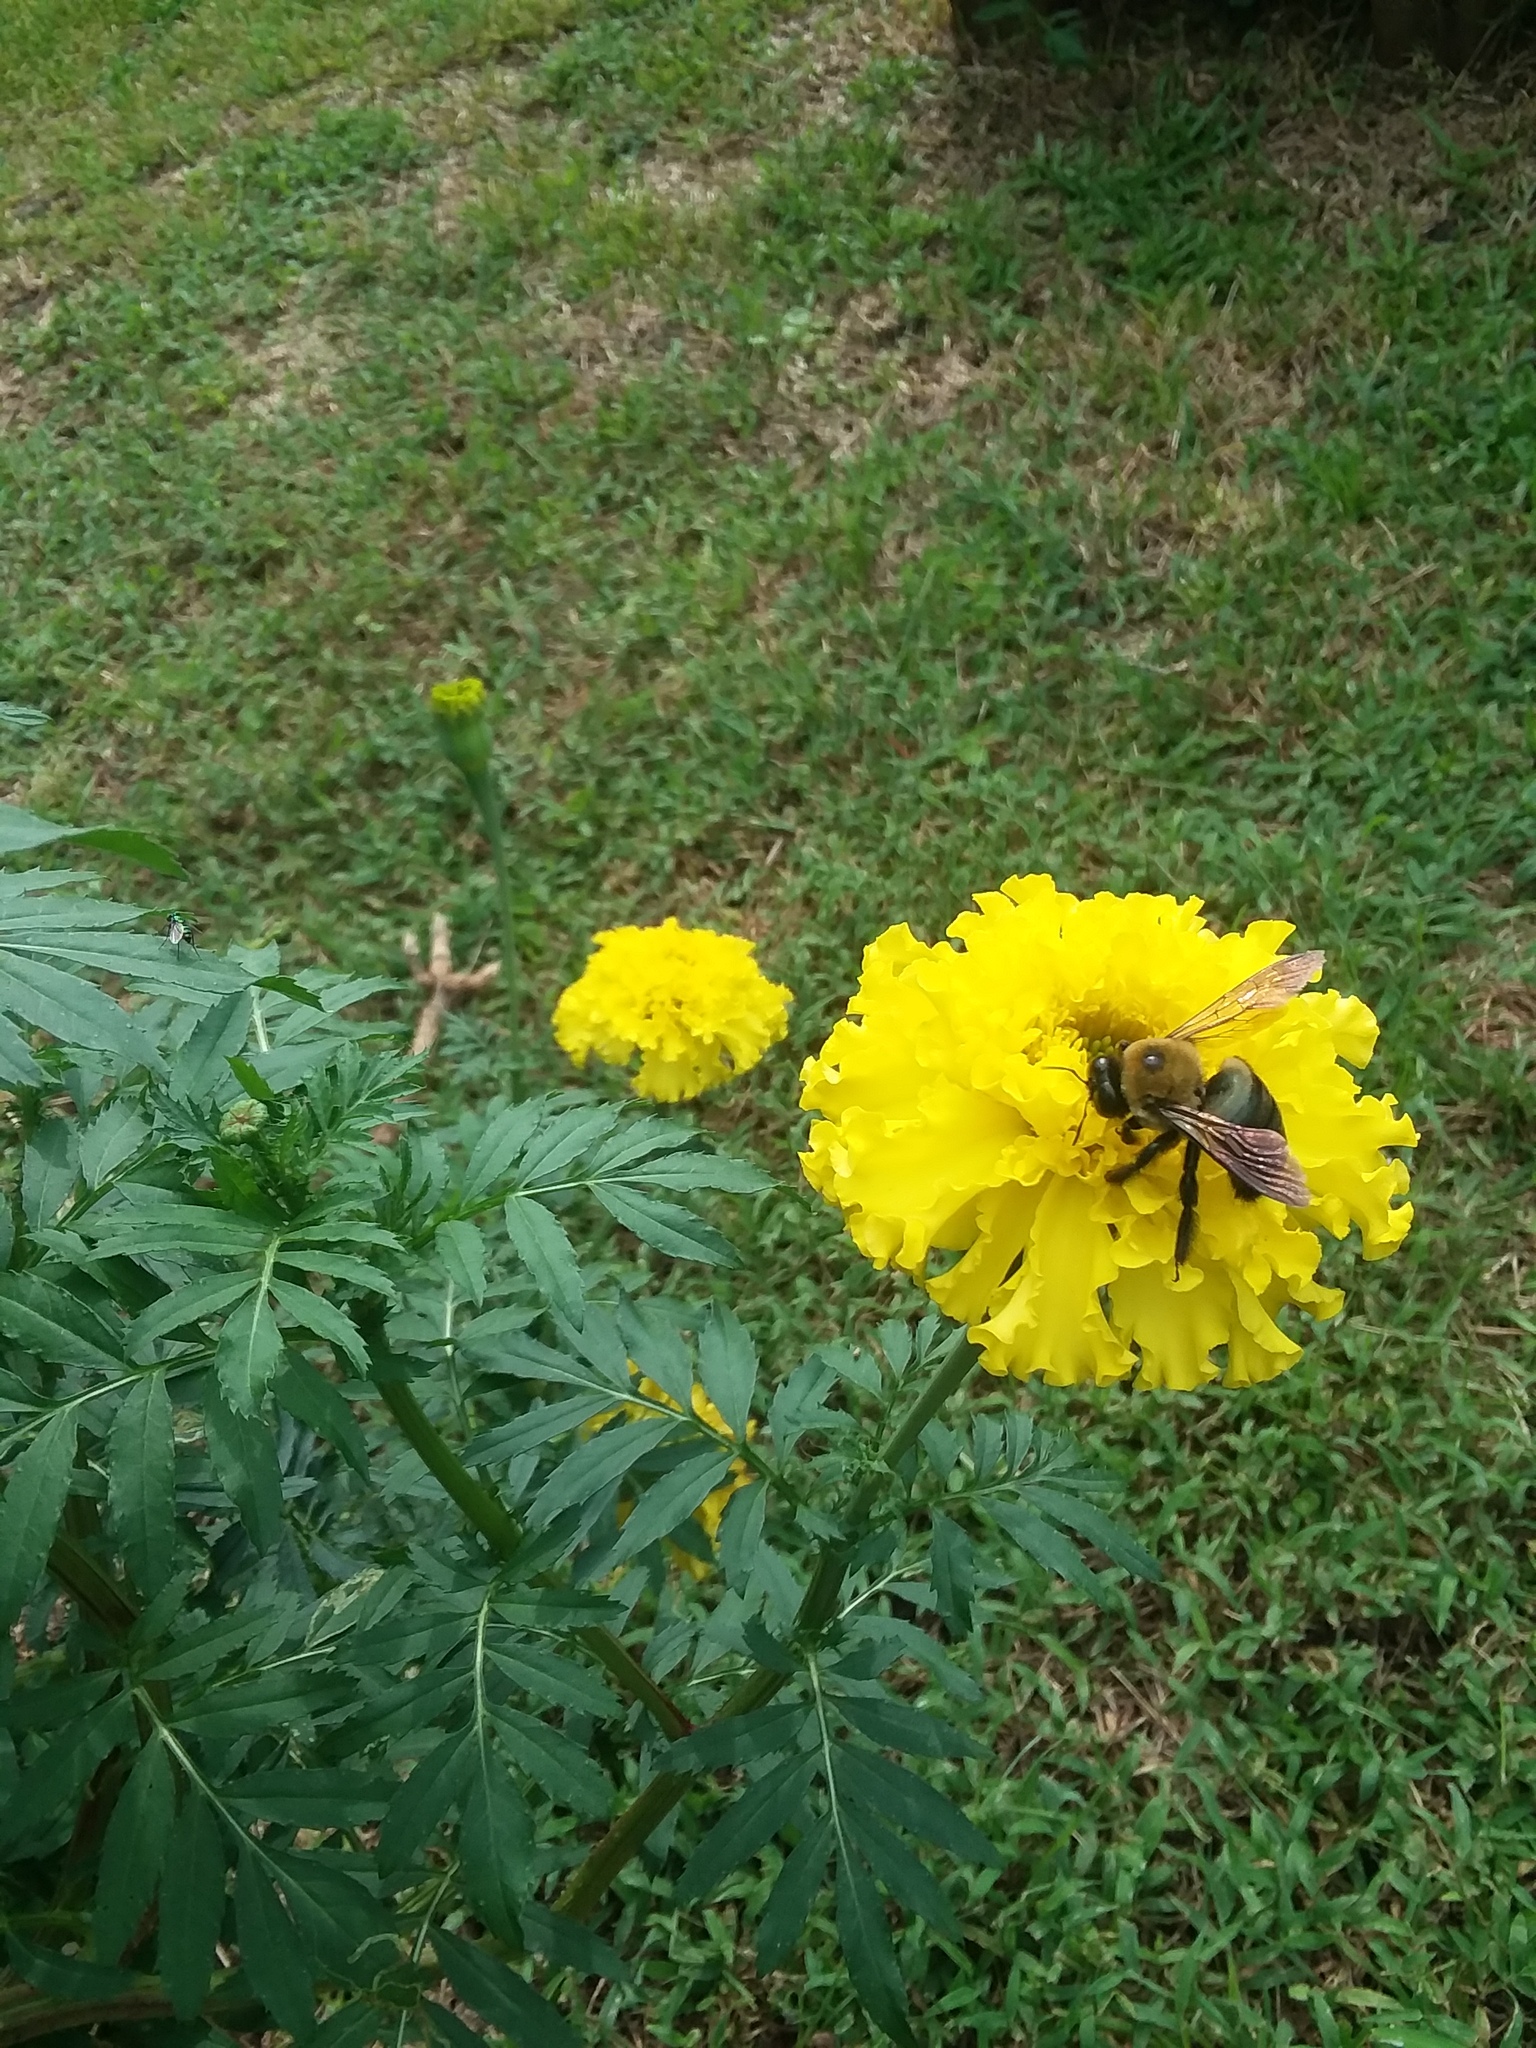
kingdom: Animalia
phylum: Arthropoda
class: Insecta
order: Hymenoptera
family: Apidae
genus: Xylocopa
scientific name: Xylocopa virginica
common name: Carpenter bee
